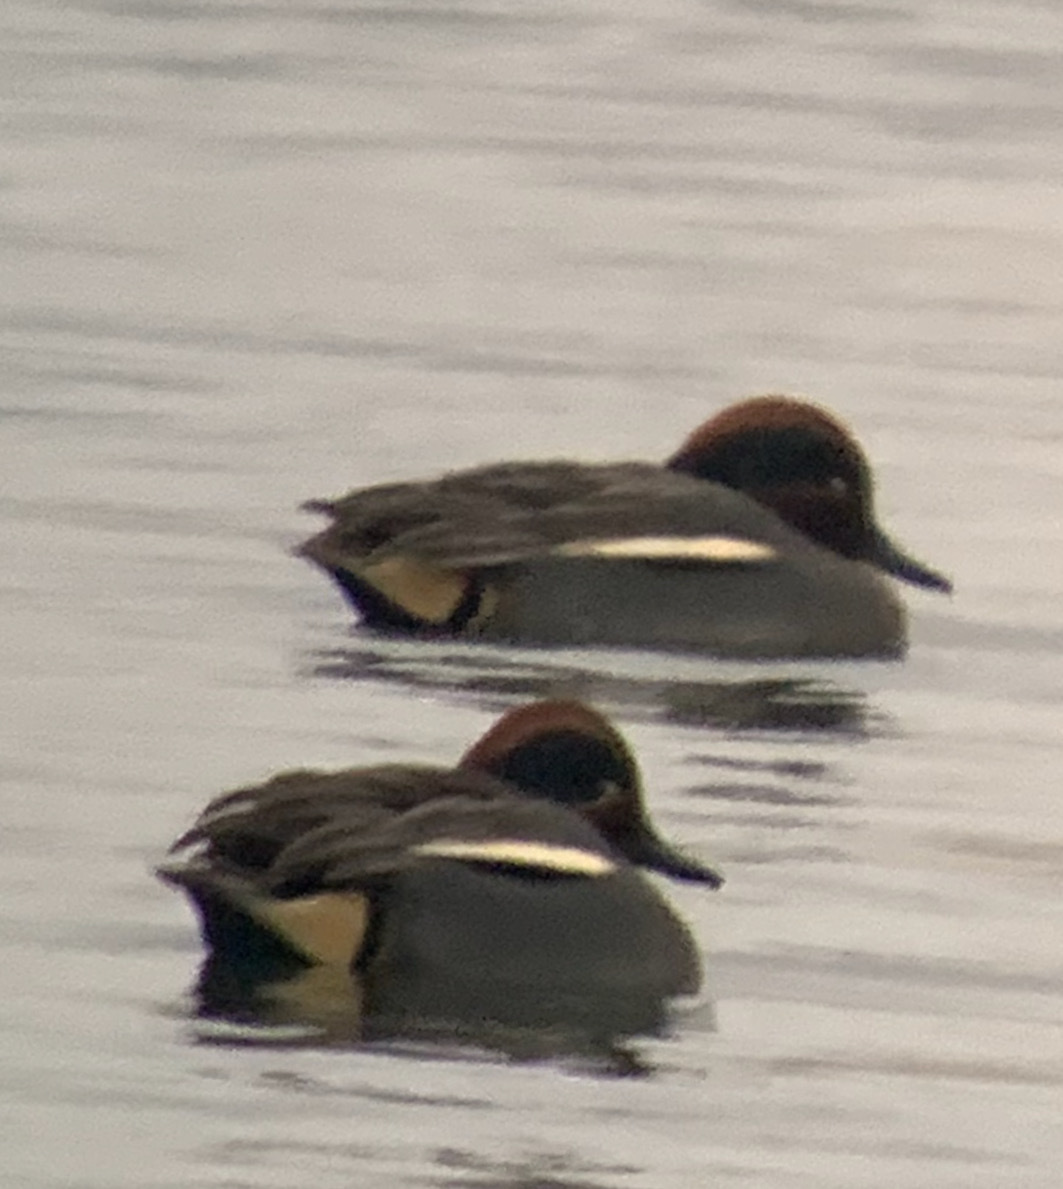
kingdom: Animalia
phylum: Chordata
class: Aves
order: Anseriformes
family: Anatidae
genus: Anas
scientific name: Anas crecca
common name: Eurasian teal
